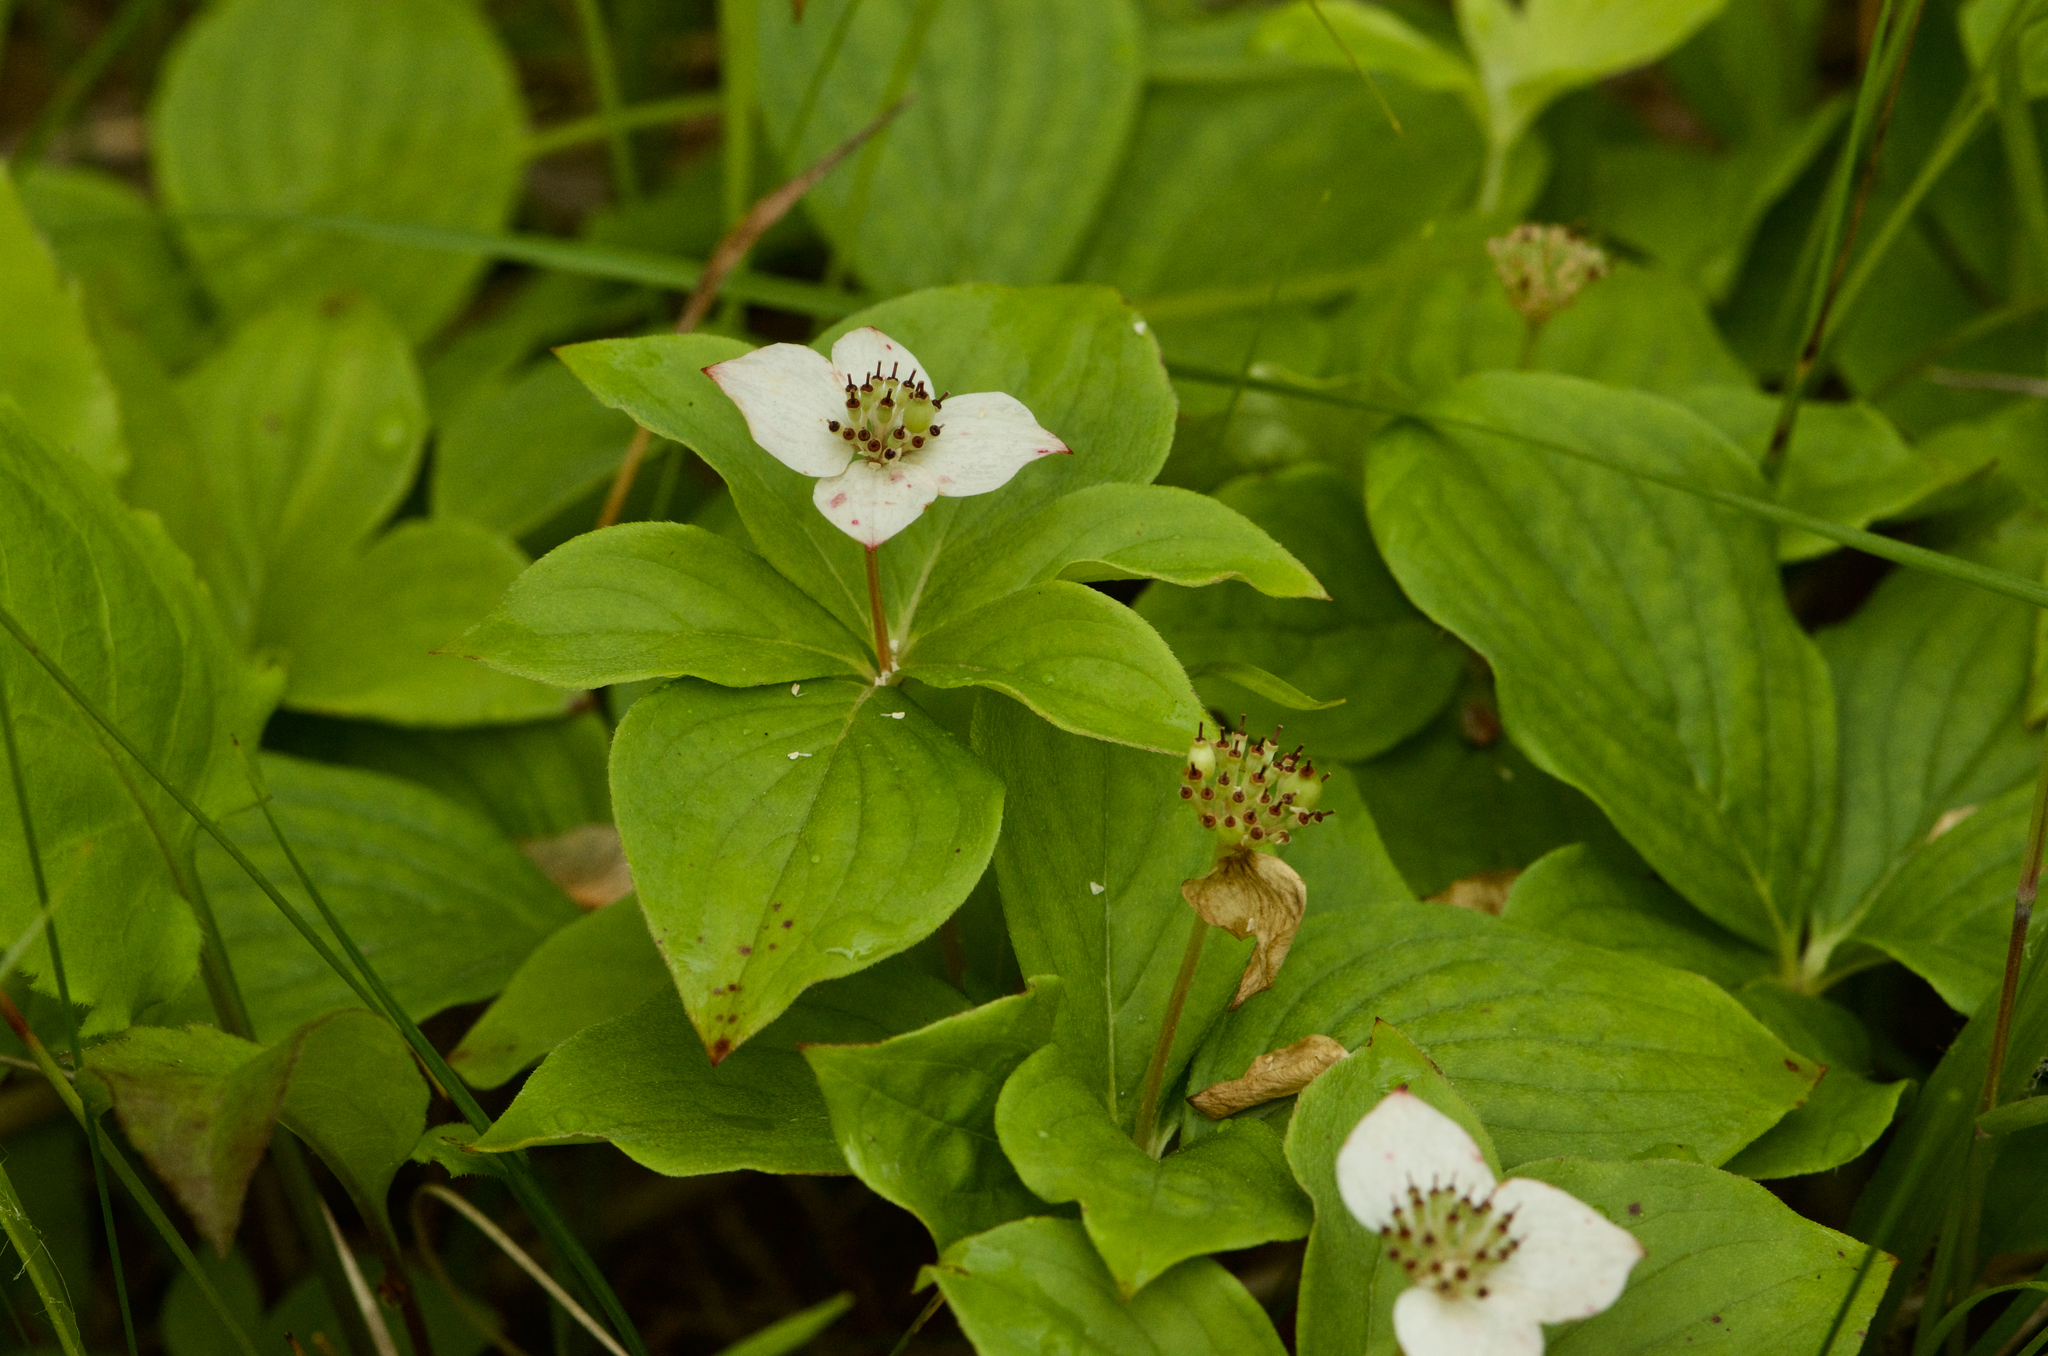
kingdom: Plantae
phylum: Tracheophyta
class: Magnoliopsida
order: Cornales
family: Cornaceae
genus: Cornus
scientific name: Cornus canadensis
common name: Creeping dogwood
